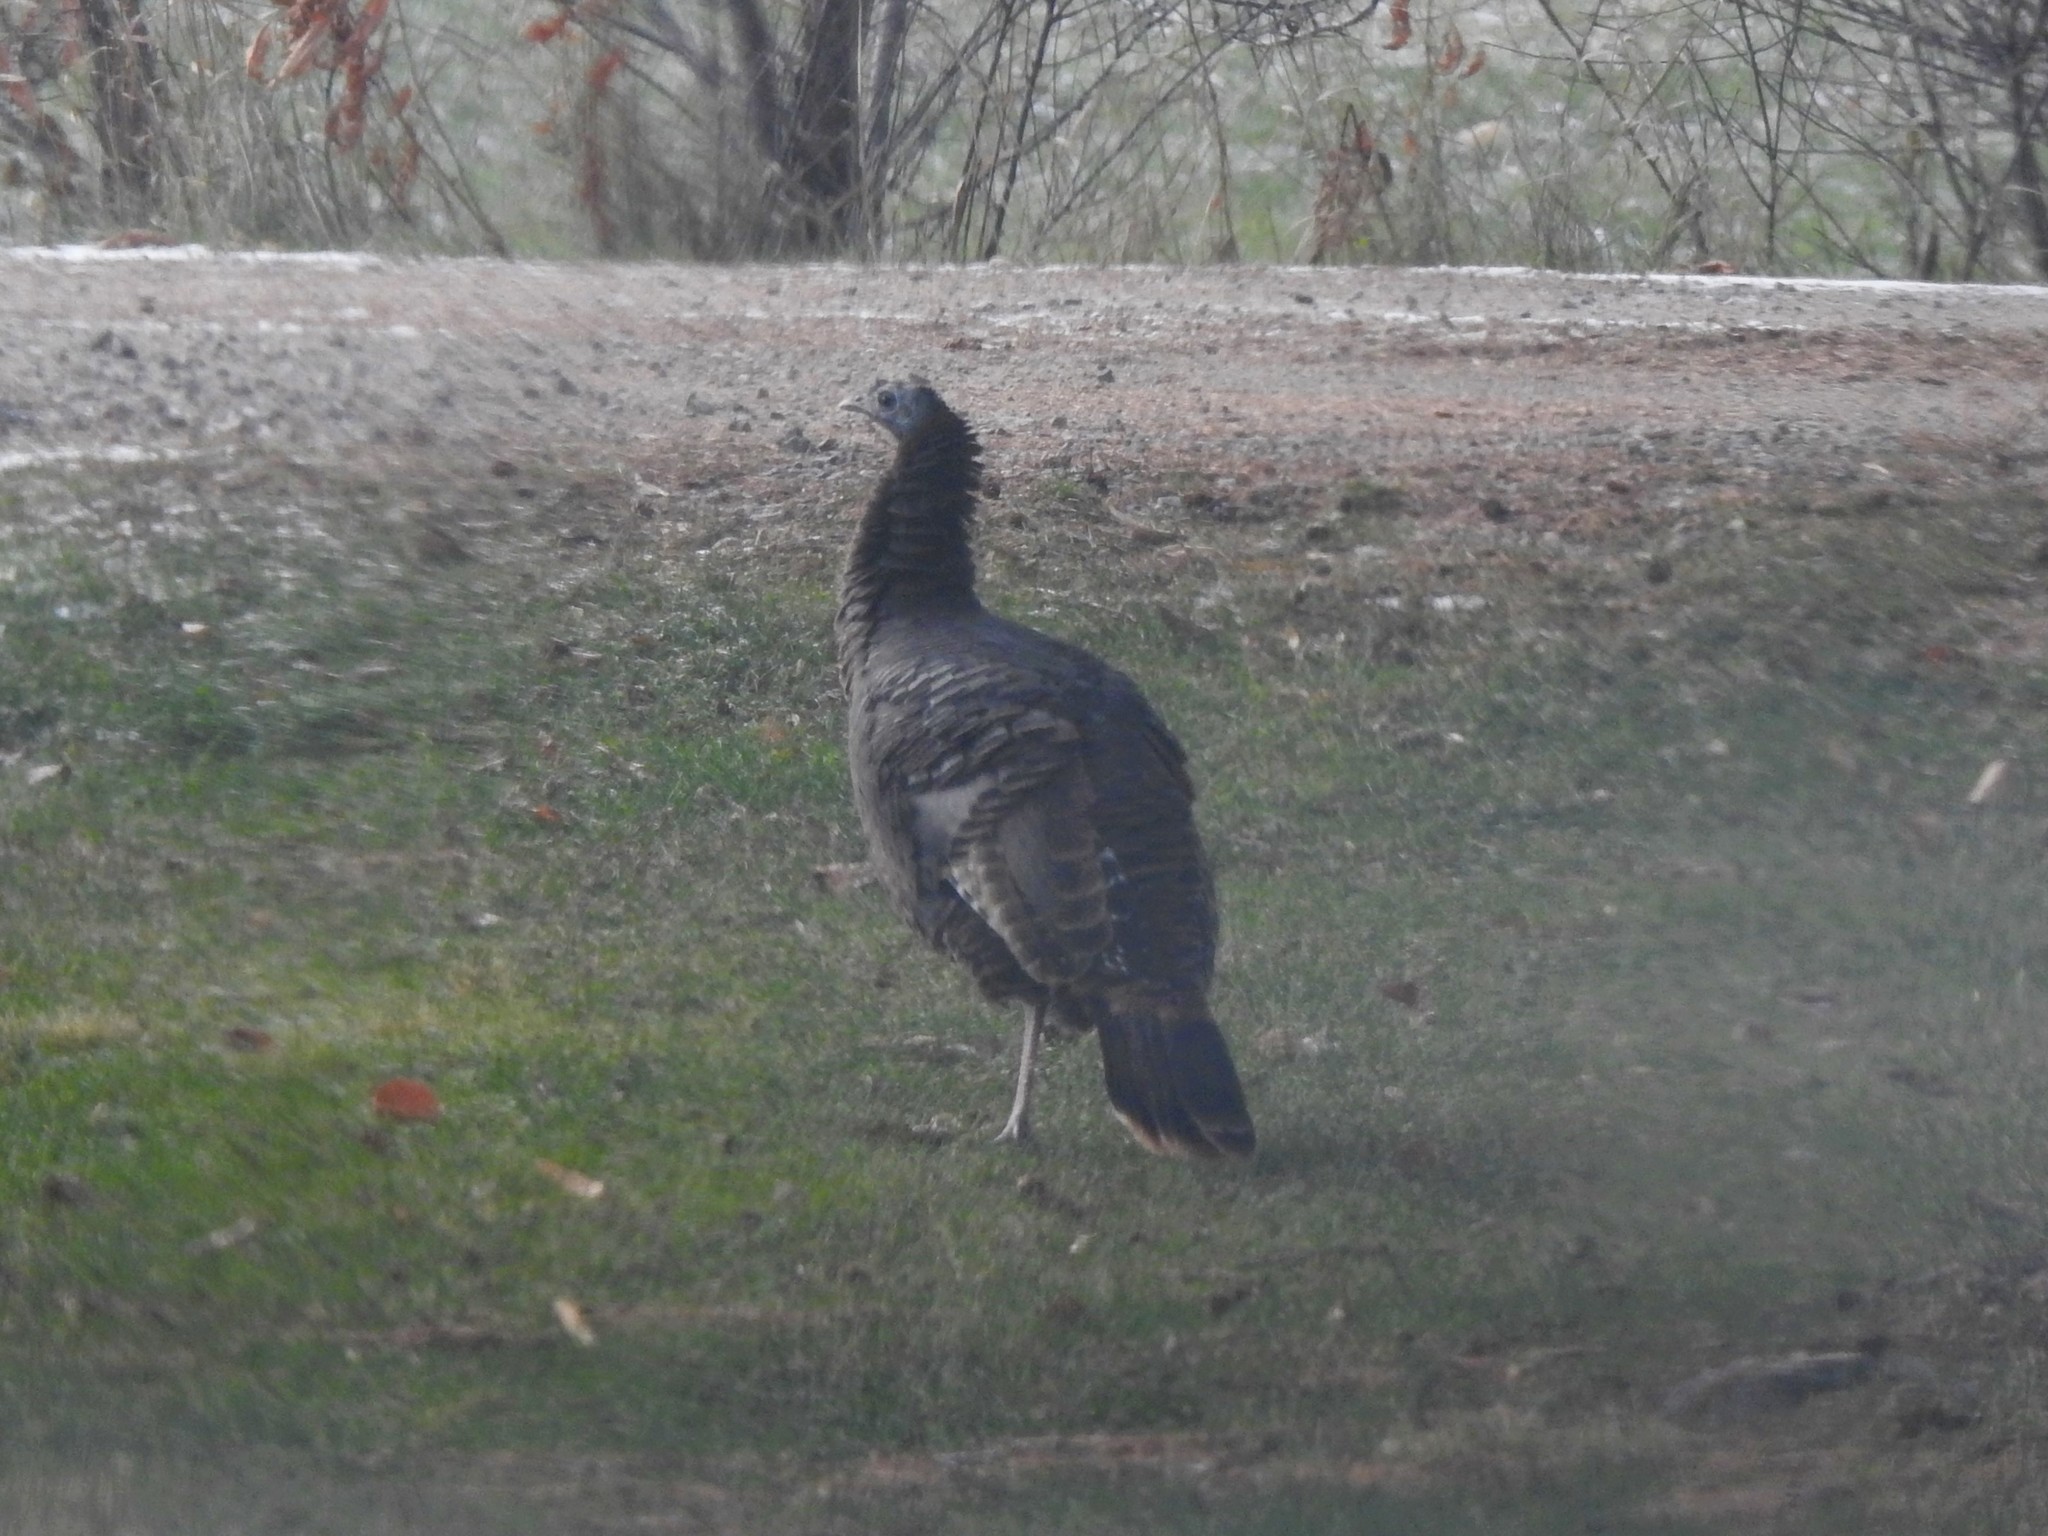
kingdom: Animalia
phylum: Chordata
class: Aves
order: Galliformes
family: Phasianidae
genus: Meleagris
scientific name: Meleagris gallopavo
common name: Wild turkey
